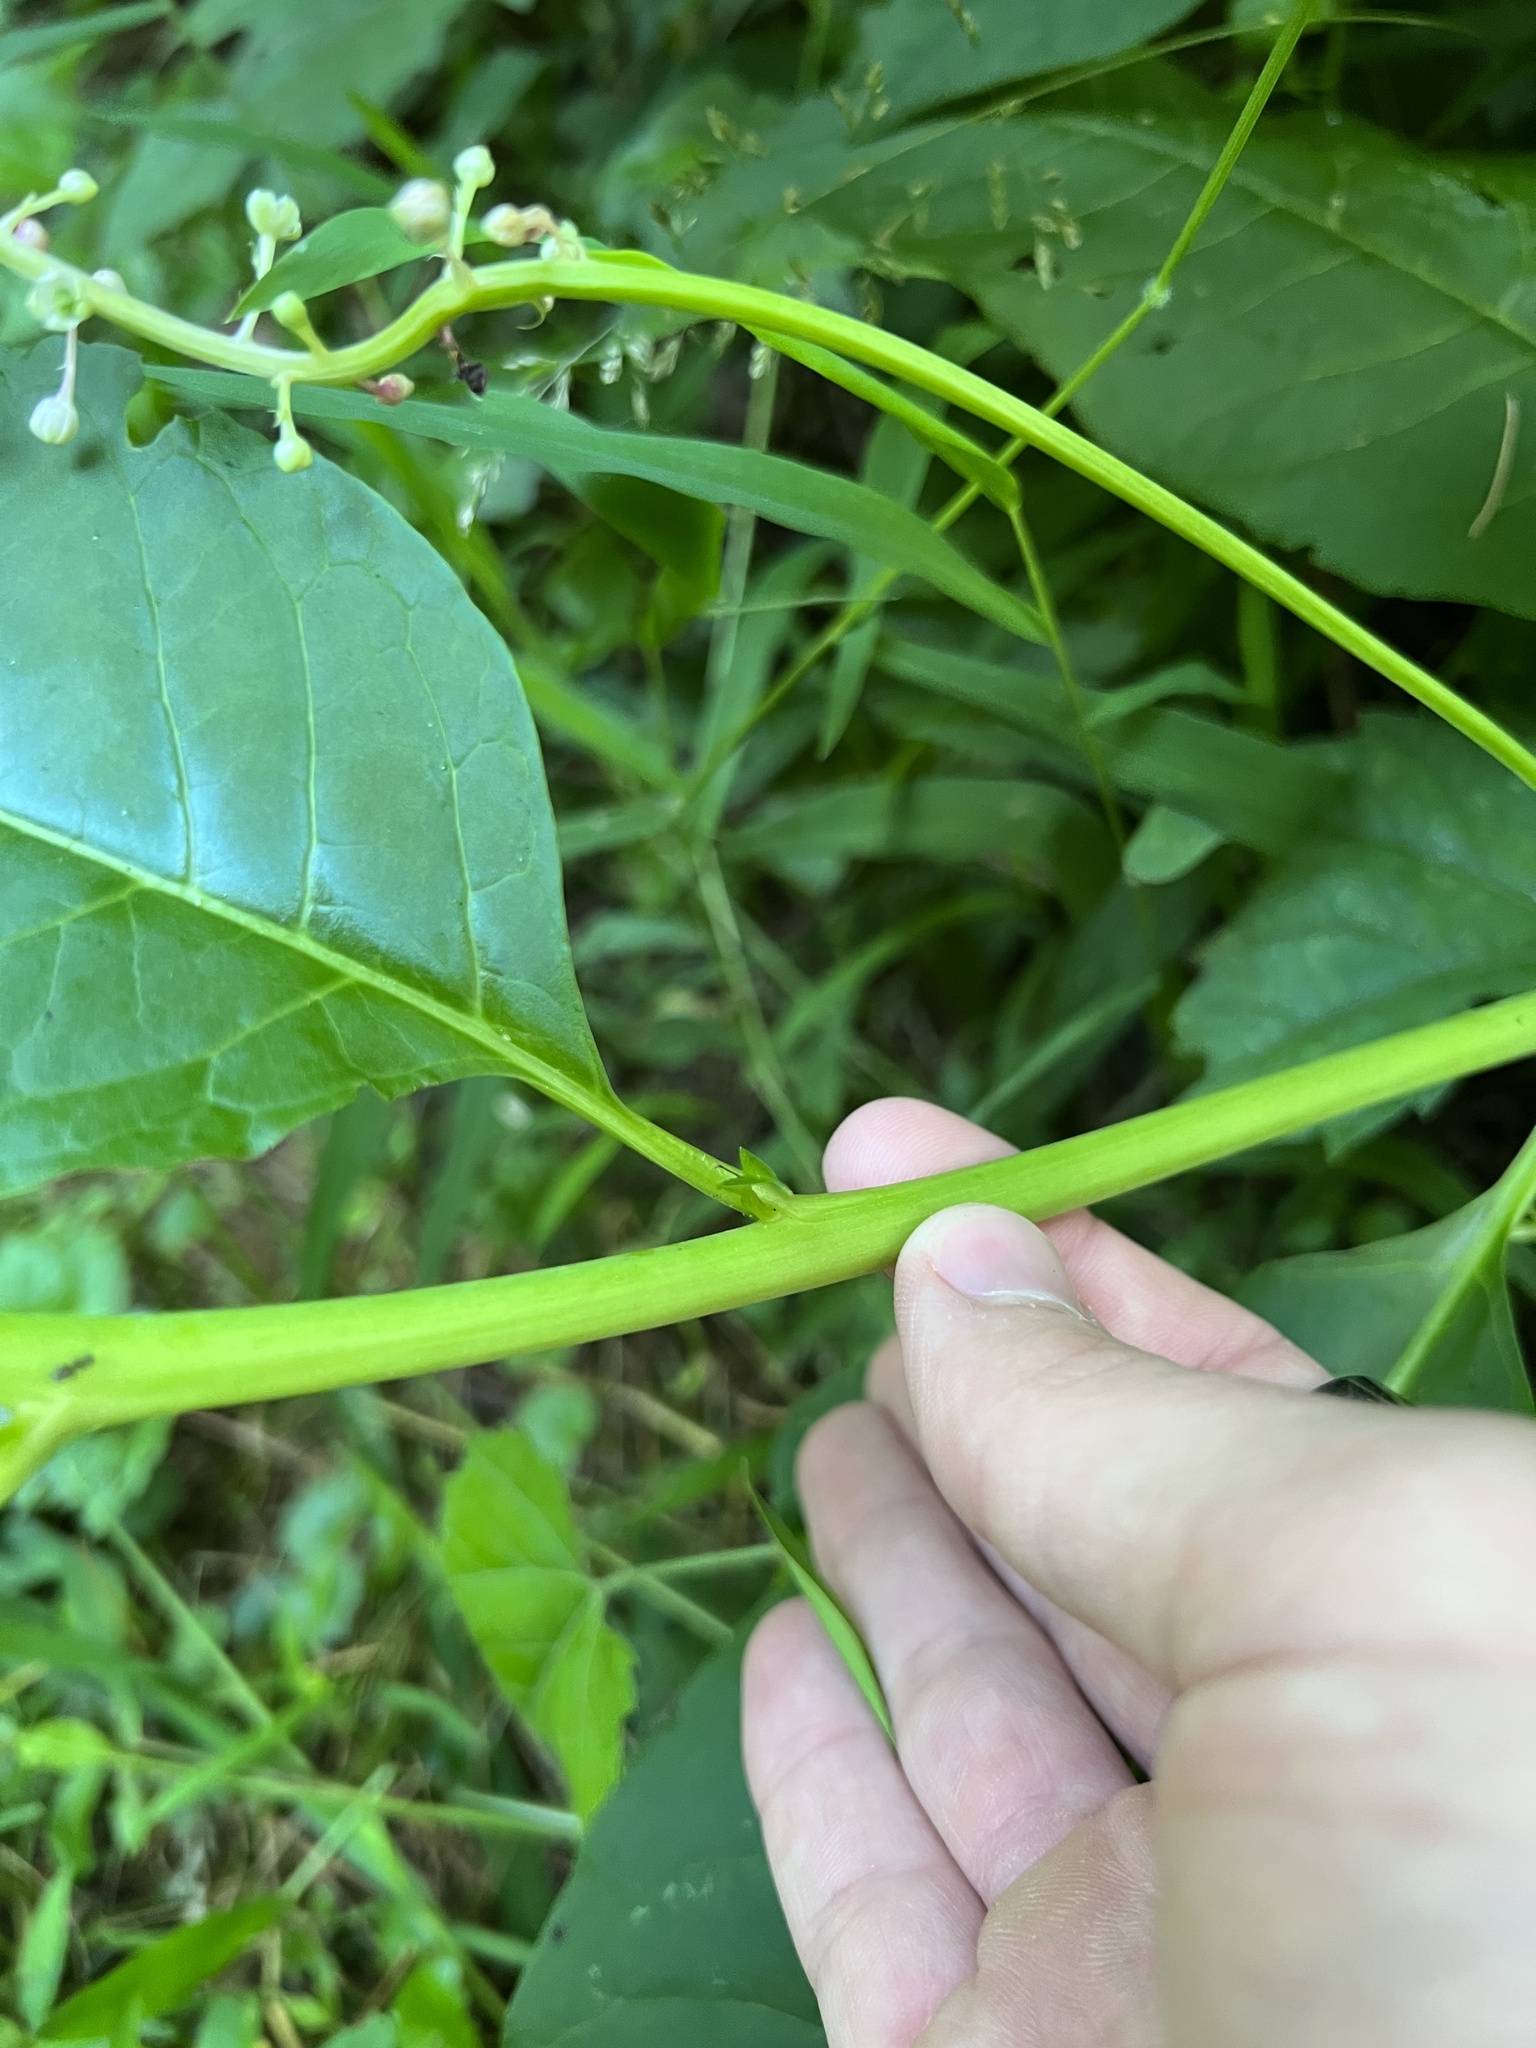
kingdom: Plantae
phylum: Tracheophyta
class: Magnoliopsida
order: Caryophyllales
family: Phytolaccaceae
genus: Phytolacca
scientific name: Phytolacca americana
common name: American pokeweed
